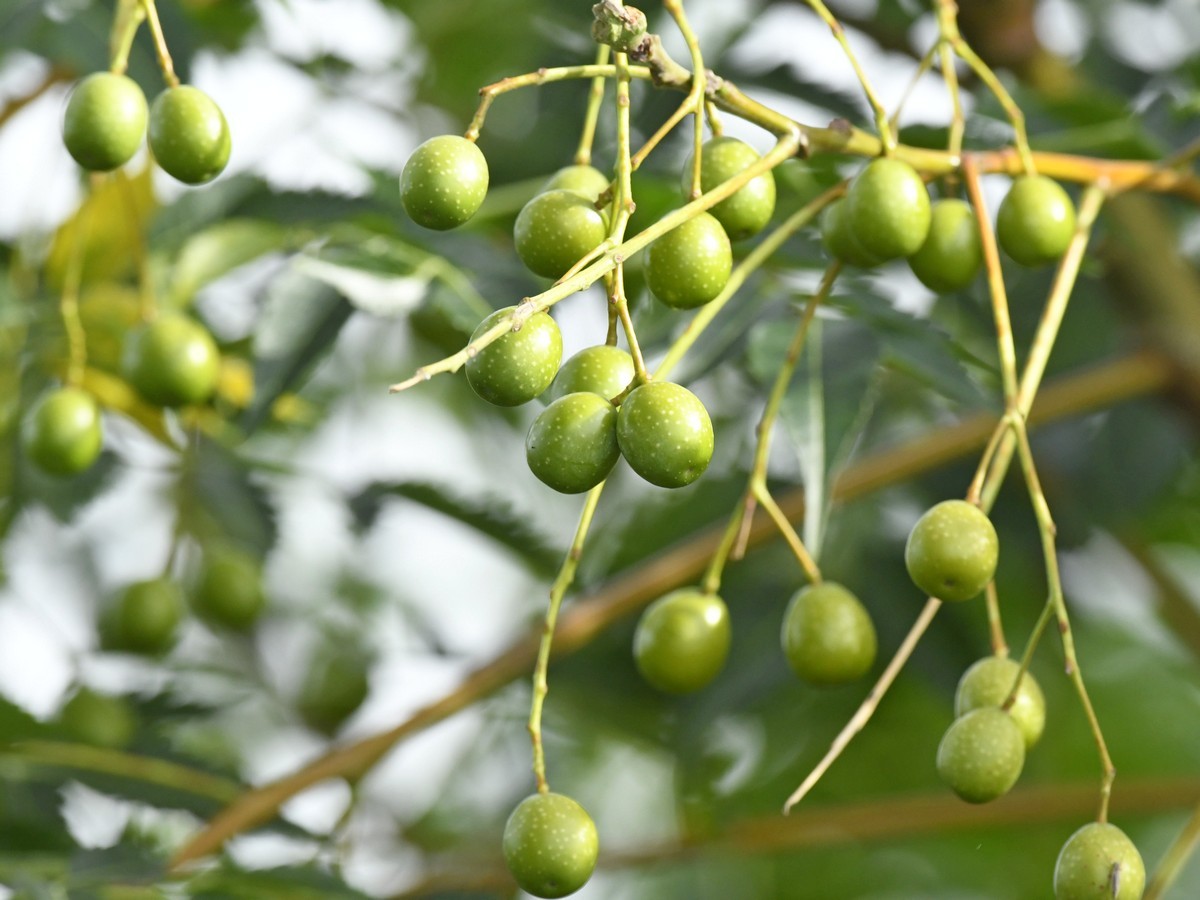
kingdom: Plantae
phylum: Tracheophyta
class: Magnoliopsida
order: Sapindales
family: Meliaceae
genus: Melia
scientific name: Melia azedarach
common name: Chinaberrytree
